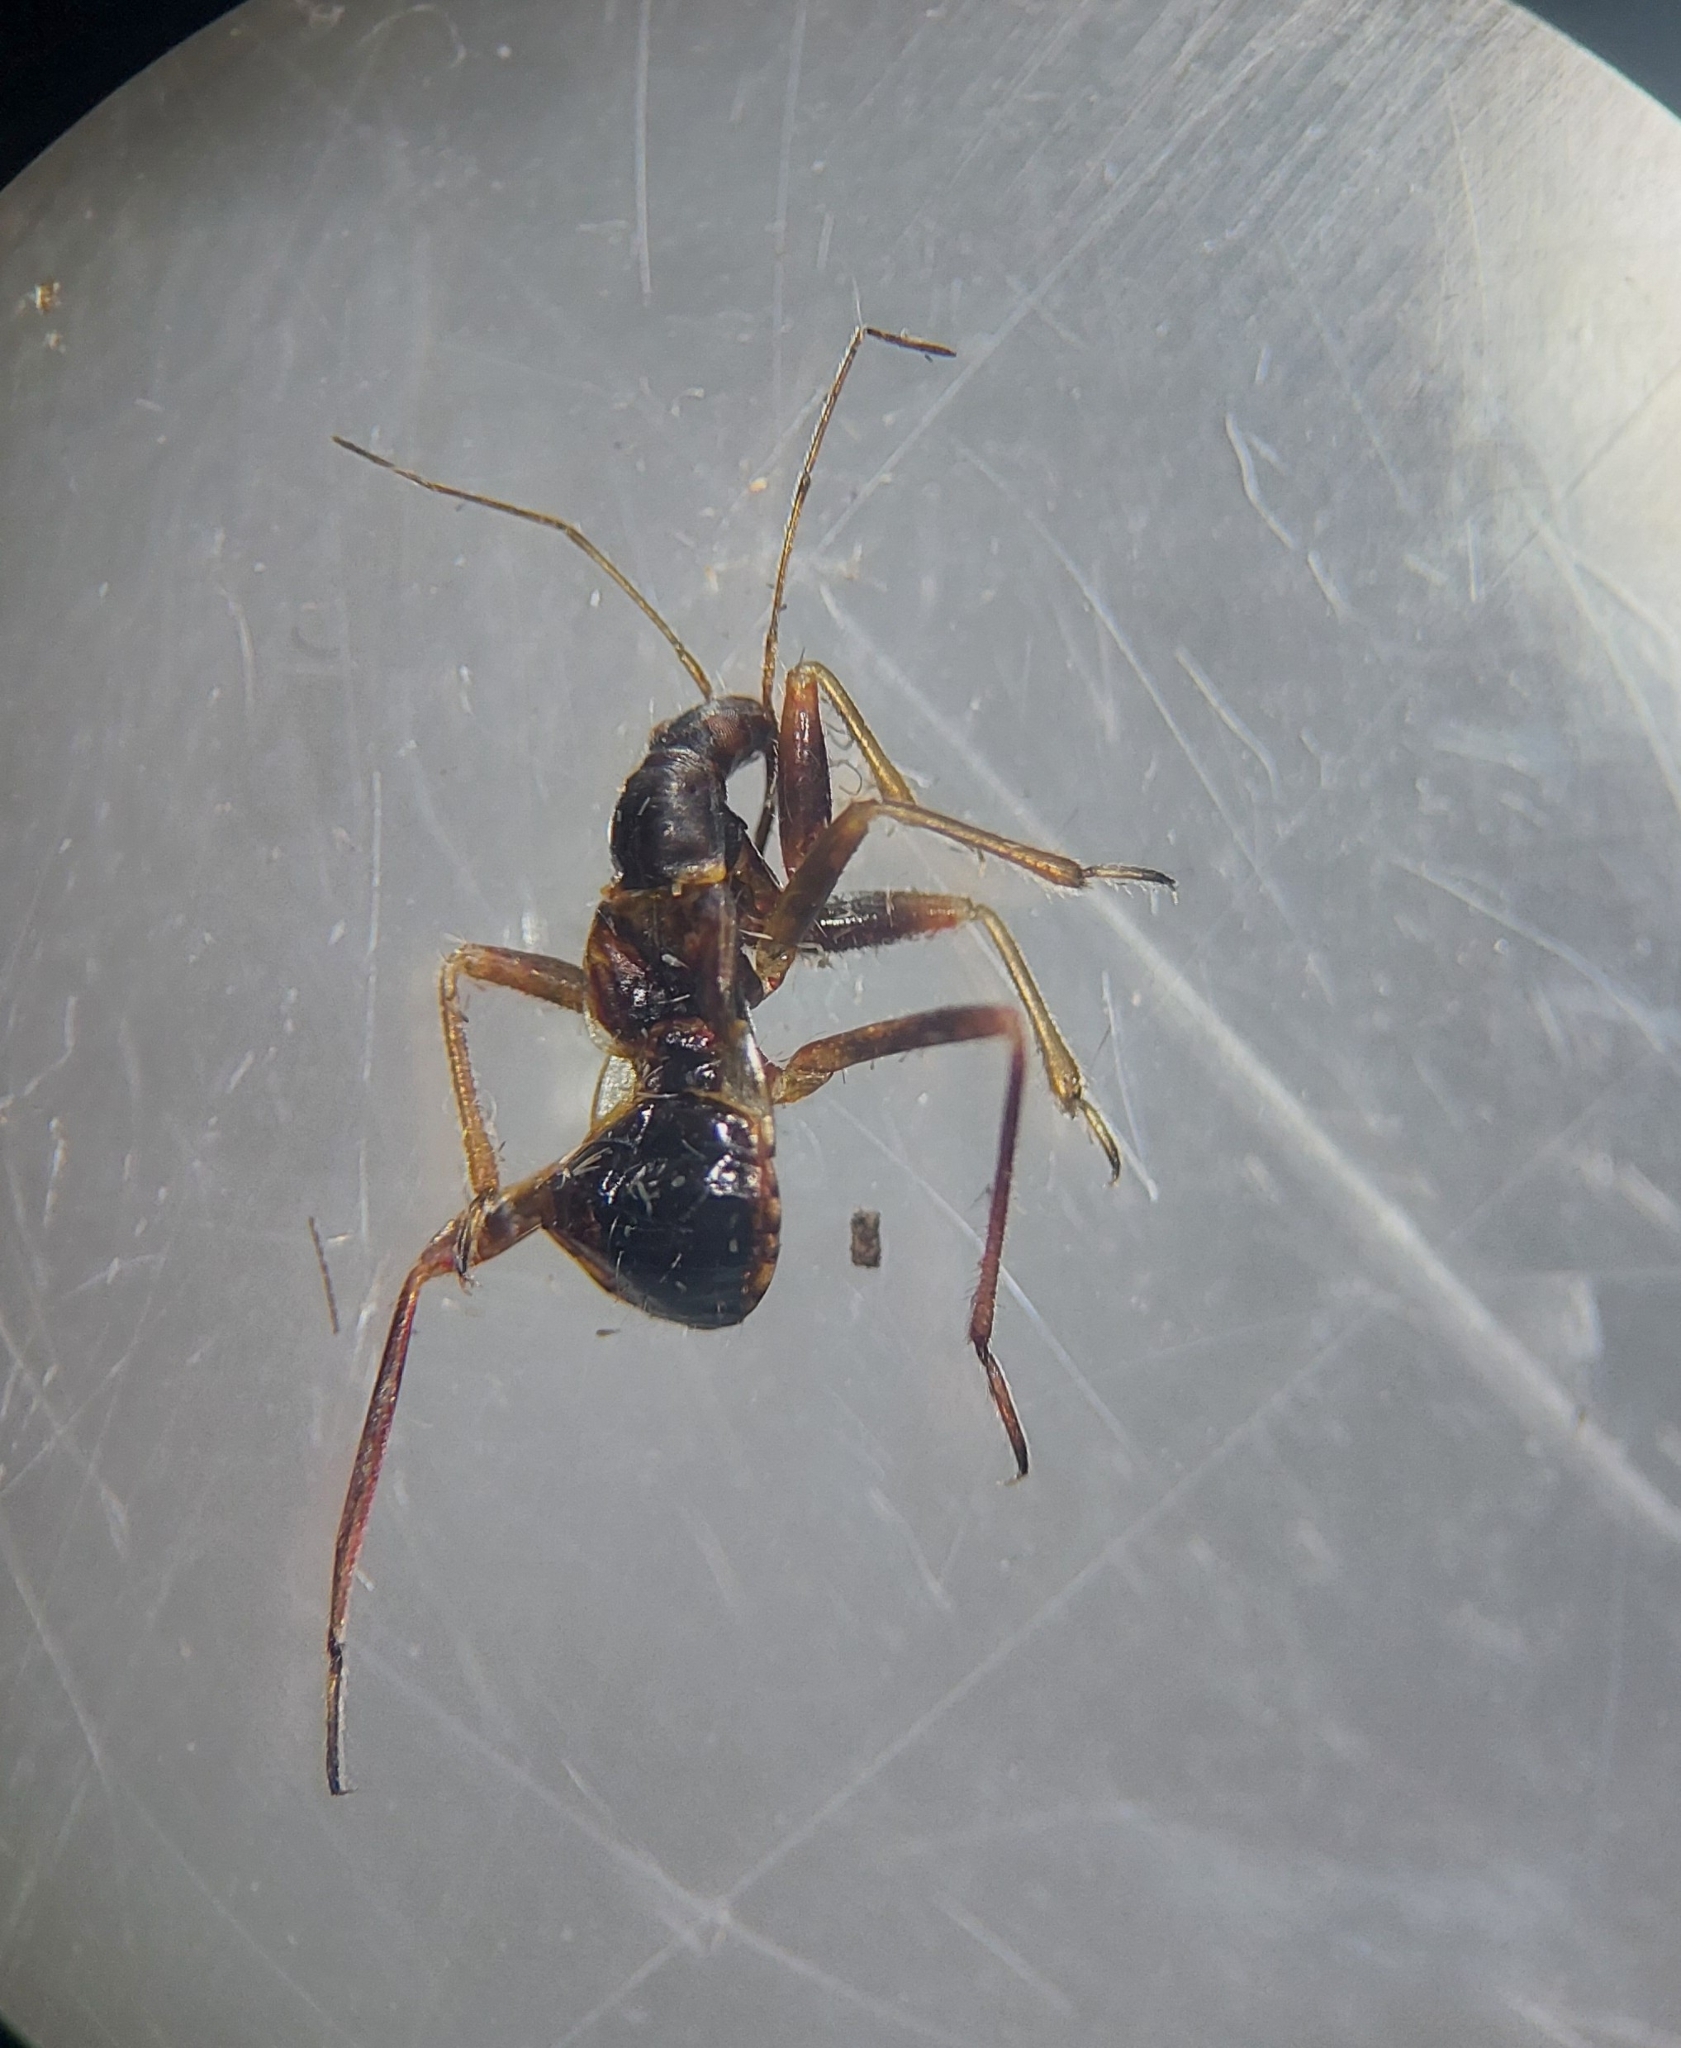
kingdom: Animalia
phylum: Arthropoda
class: Insecta
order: Hemiptera
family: Nabidae
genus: Himacerus
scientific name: Himacerus mirmicoides
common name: Ant damsel bug
